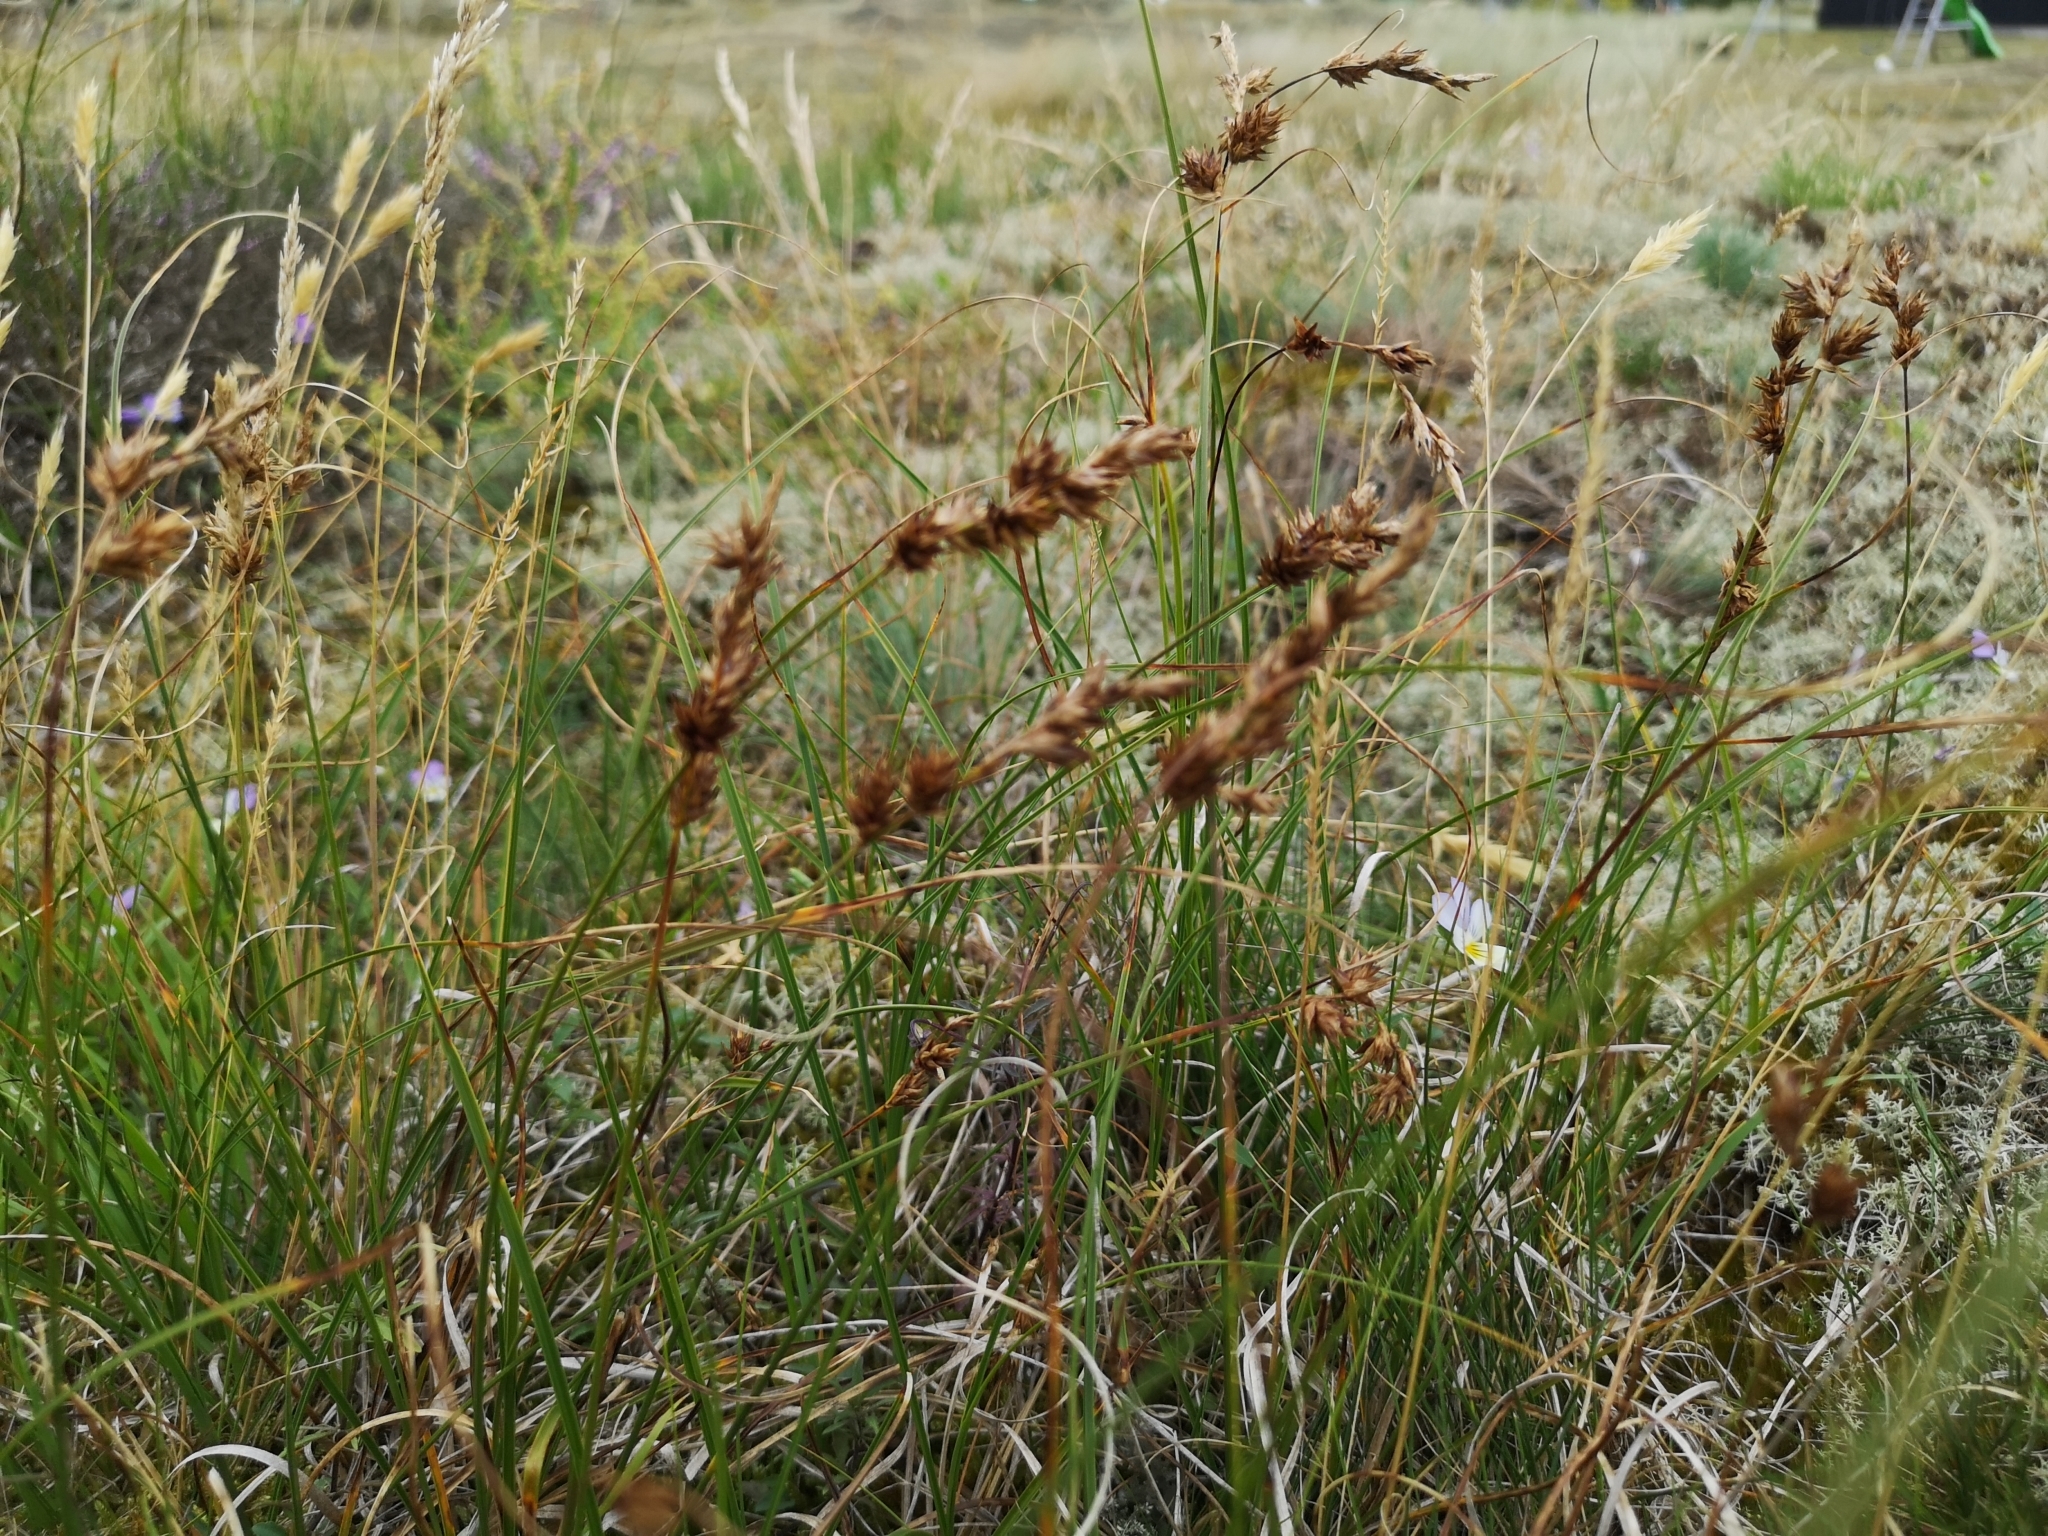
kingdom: Plantae
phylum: Tracheophyta
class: Liliopsida
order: Poales
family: Cyperaceae
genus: Carex
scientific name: Carex arenaria
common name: Sand sedge
